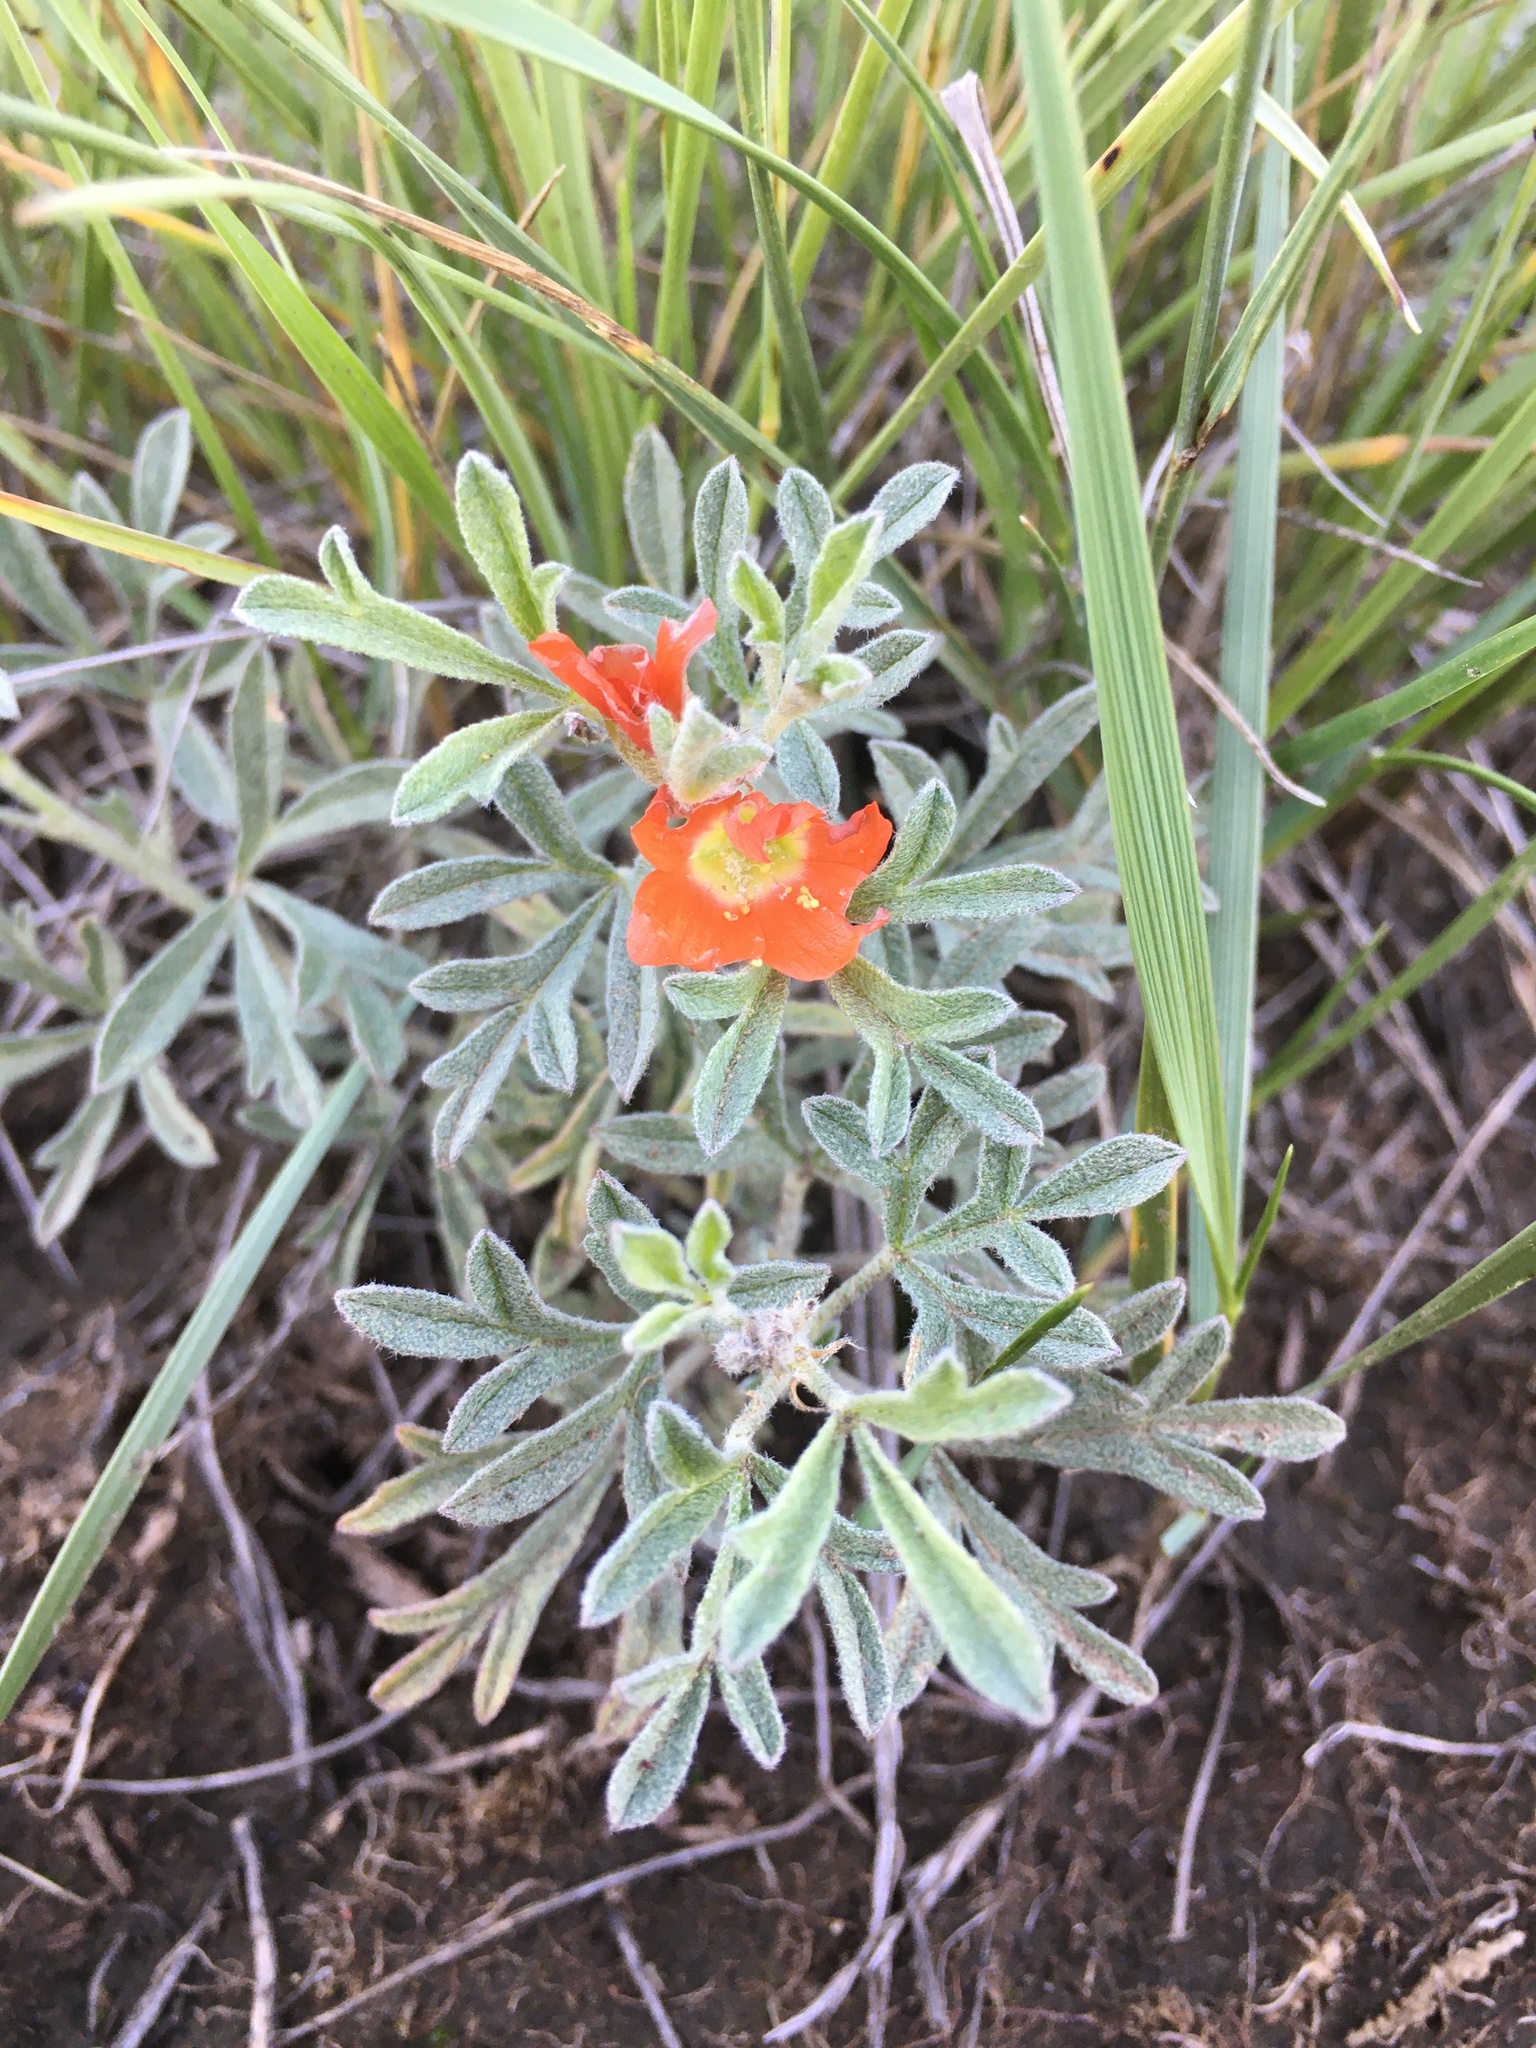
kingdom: Plantae
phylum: Tracheophyta
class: Magnoliopsida
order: Malvales
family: Malvaceae
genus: Sphaeralcea
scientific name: Sphaeralcea coccinea
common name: Moss-rose
